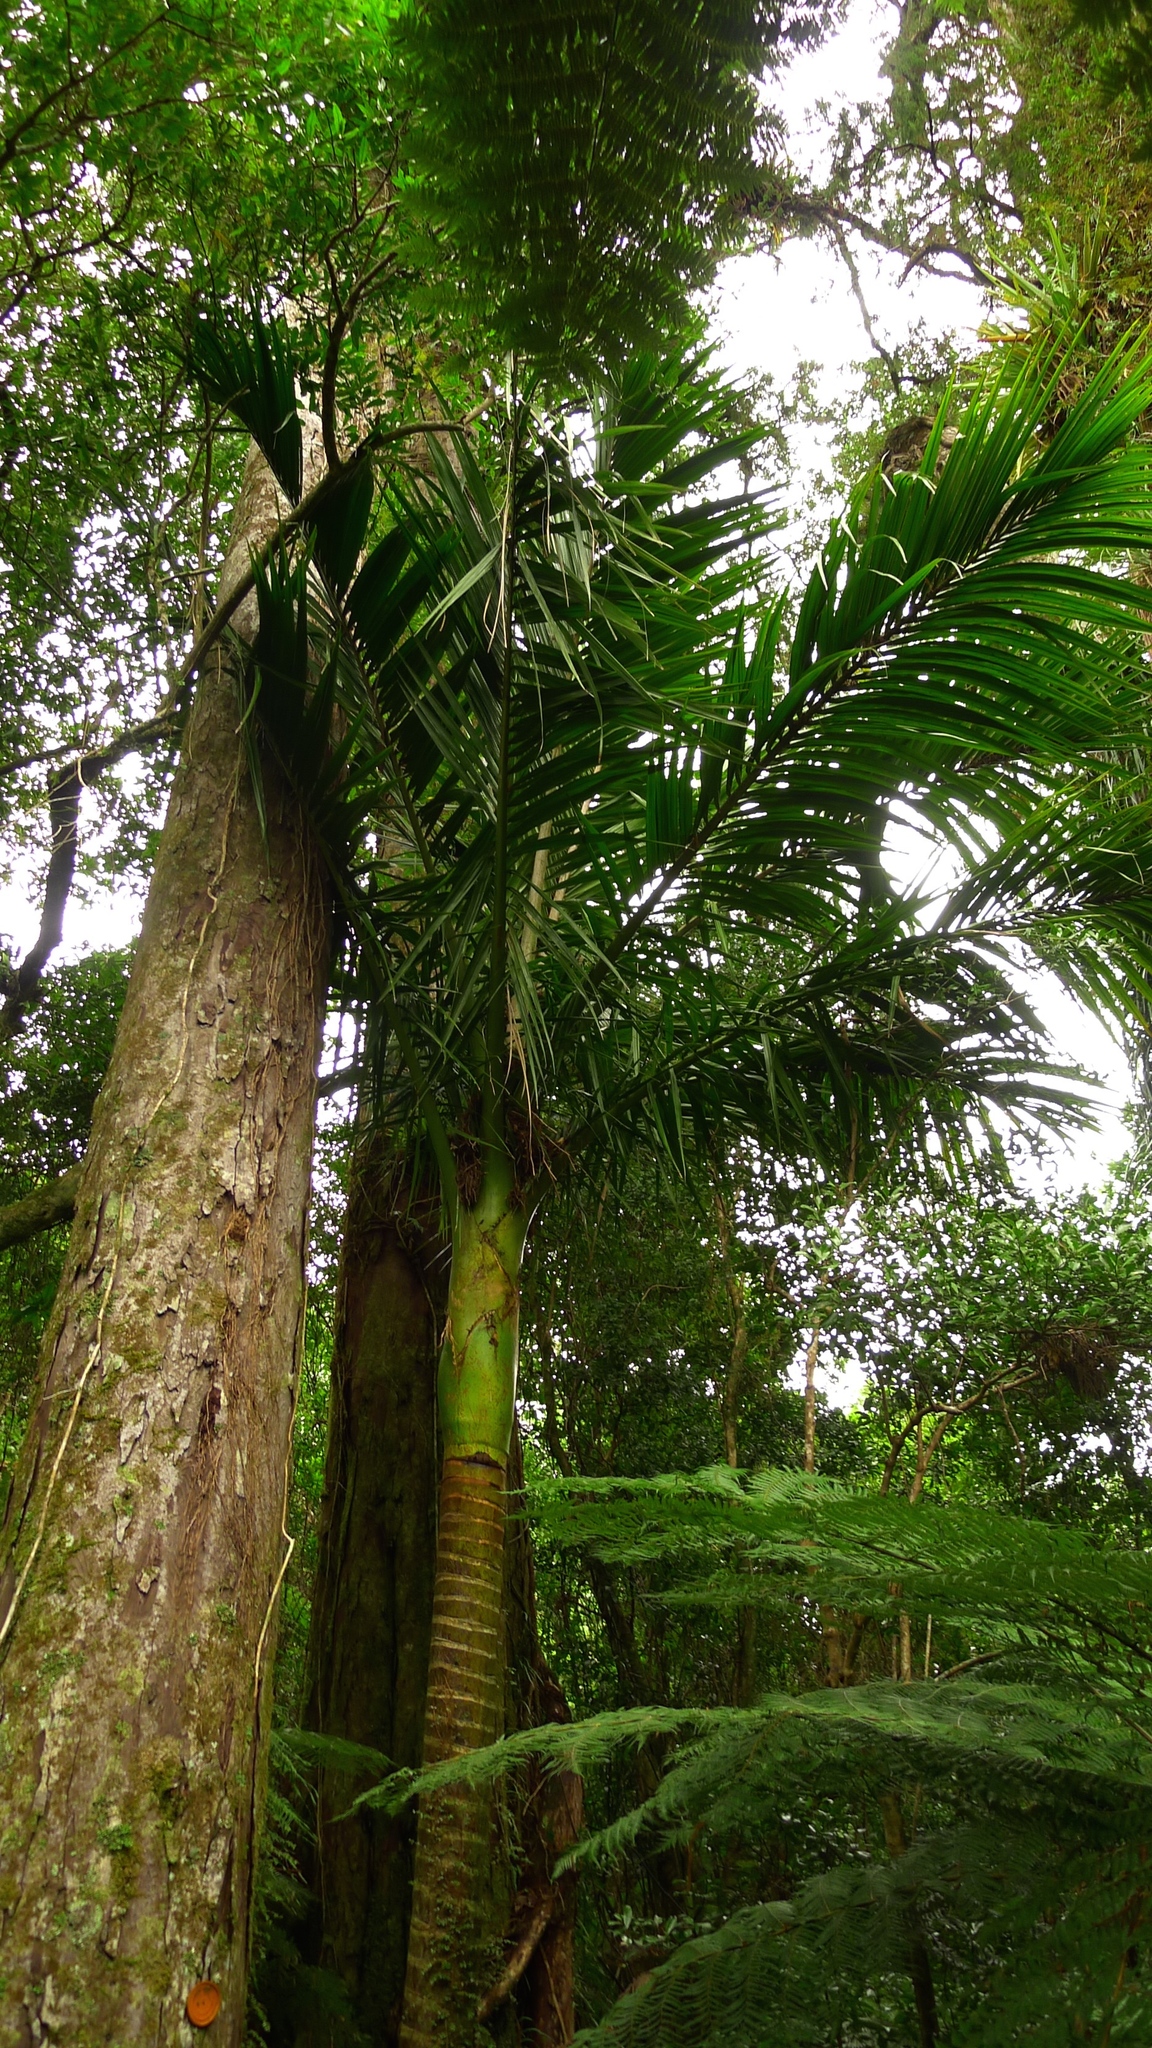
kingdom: Plantae
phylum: Tracheophyta
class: Liliopsida
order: Arecales
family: Arecaceae
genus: Rhopalostylis
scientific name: Rhopalostylis sapida
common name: Feather-duster palm
